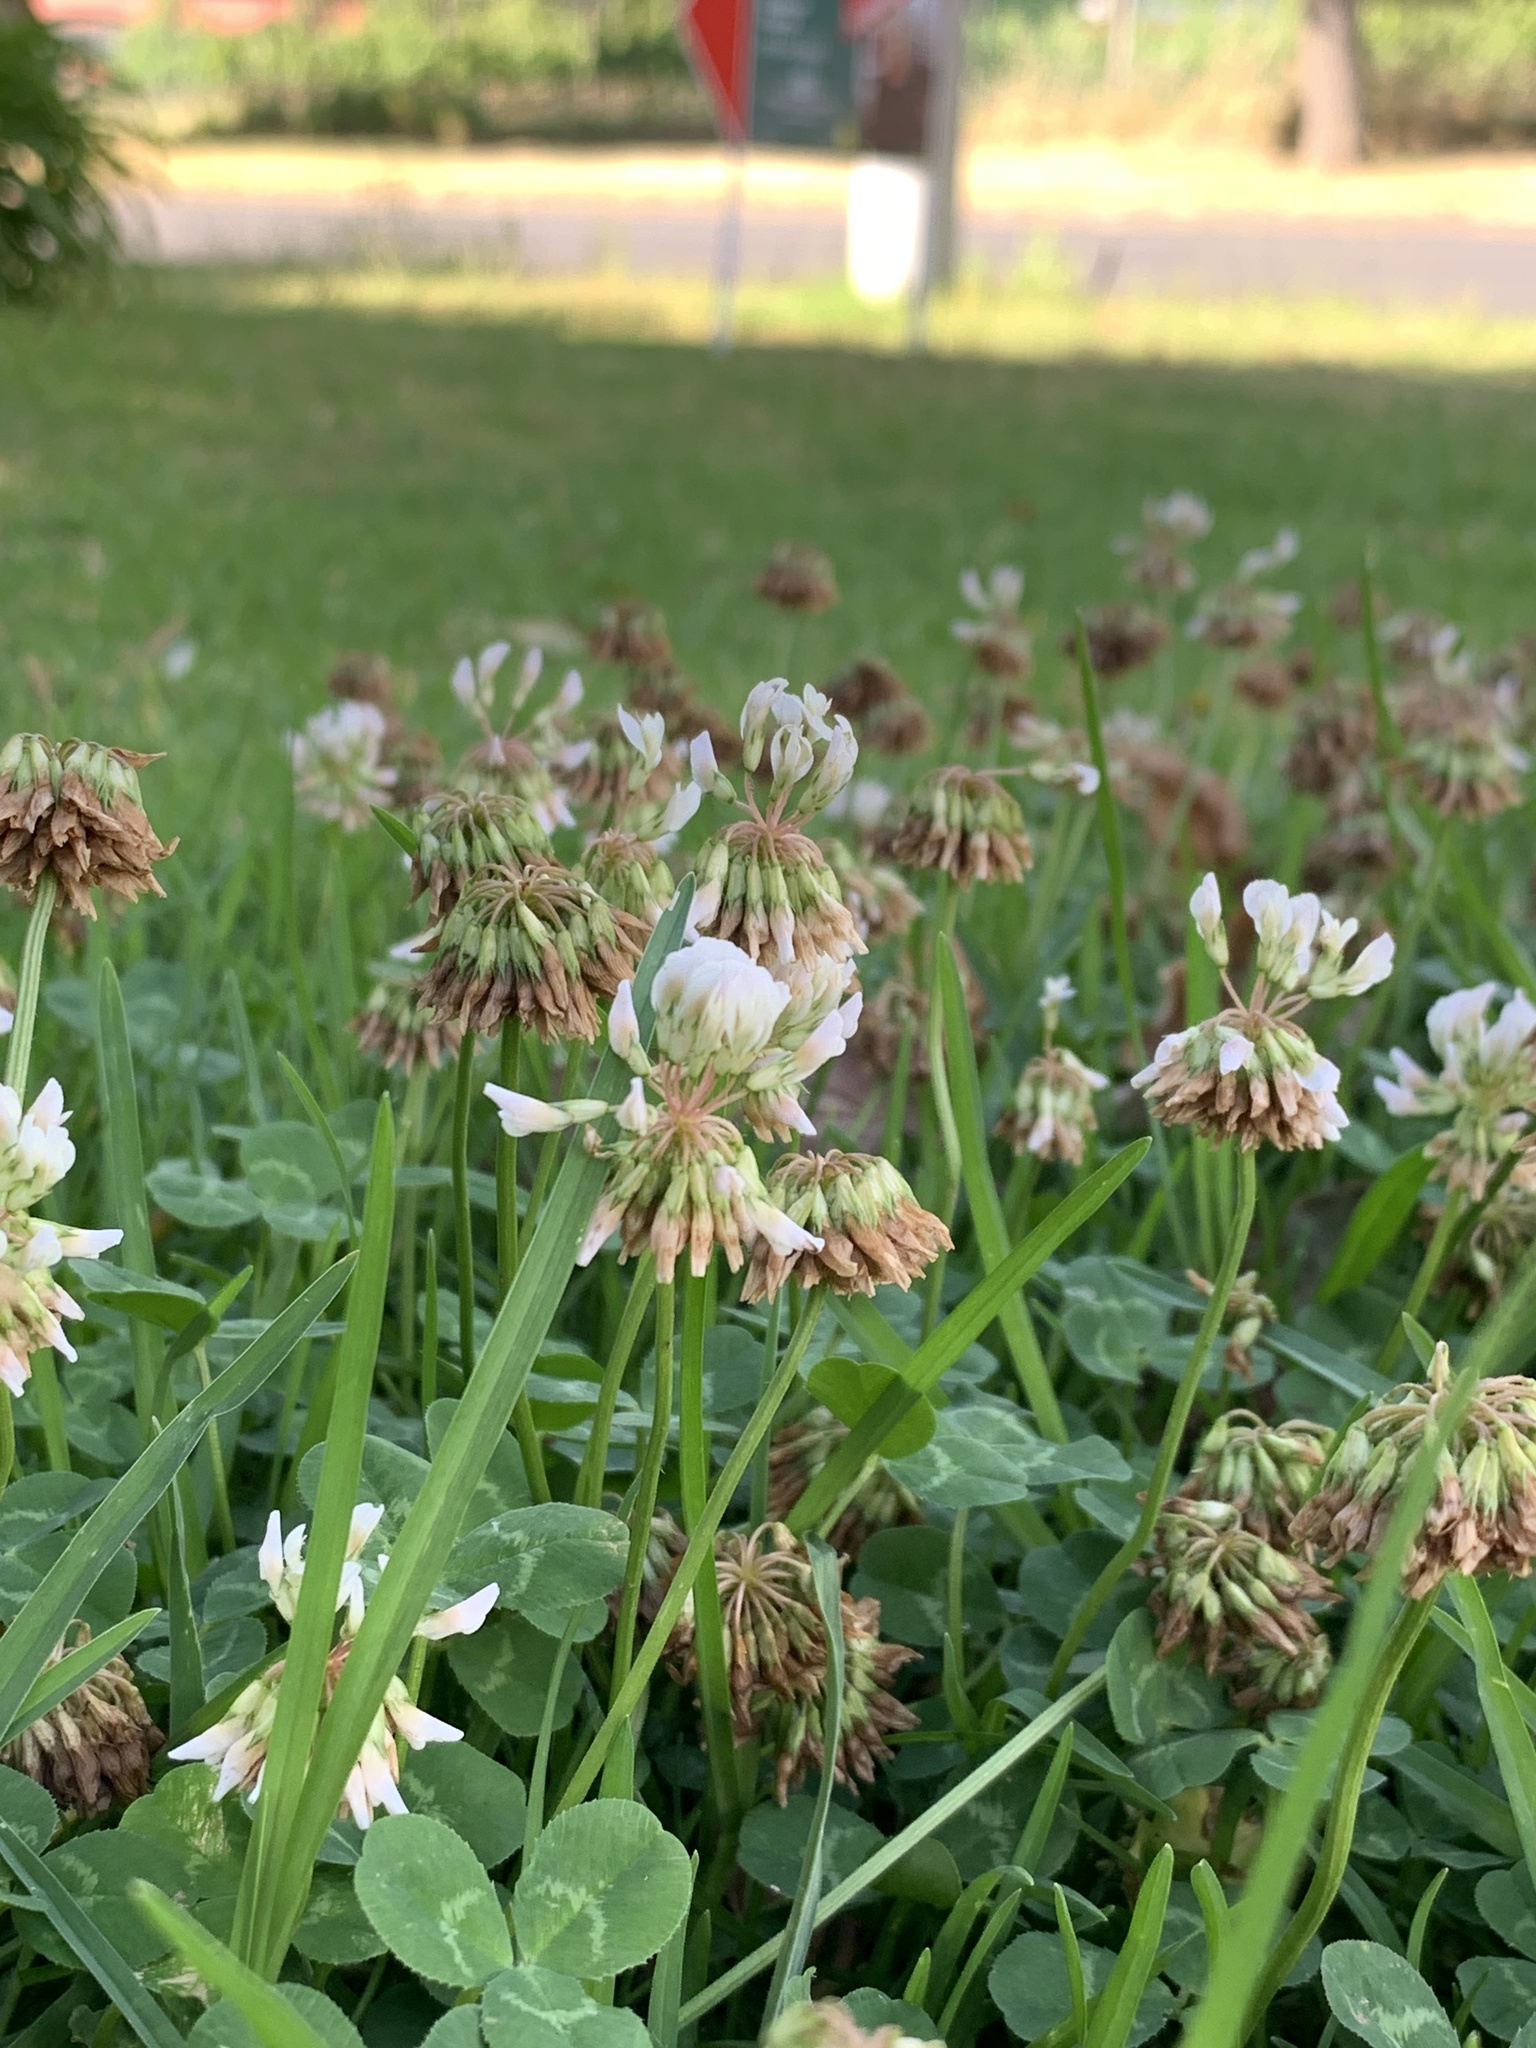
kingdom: Plantae
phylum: Tracheophyta
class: Magnoliopsida
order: Fabales
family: Fabaceae
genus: Trifolium
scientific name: Trifolium repens
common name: White clover
